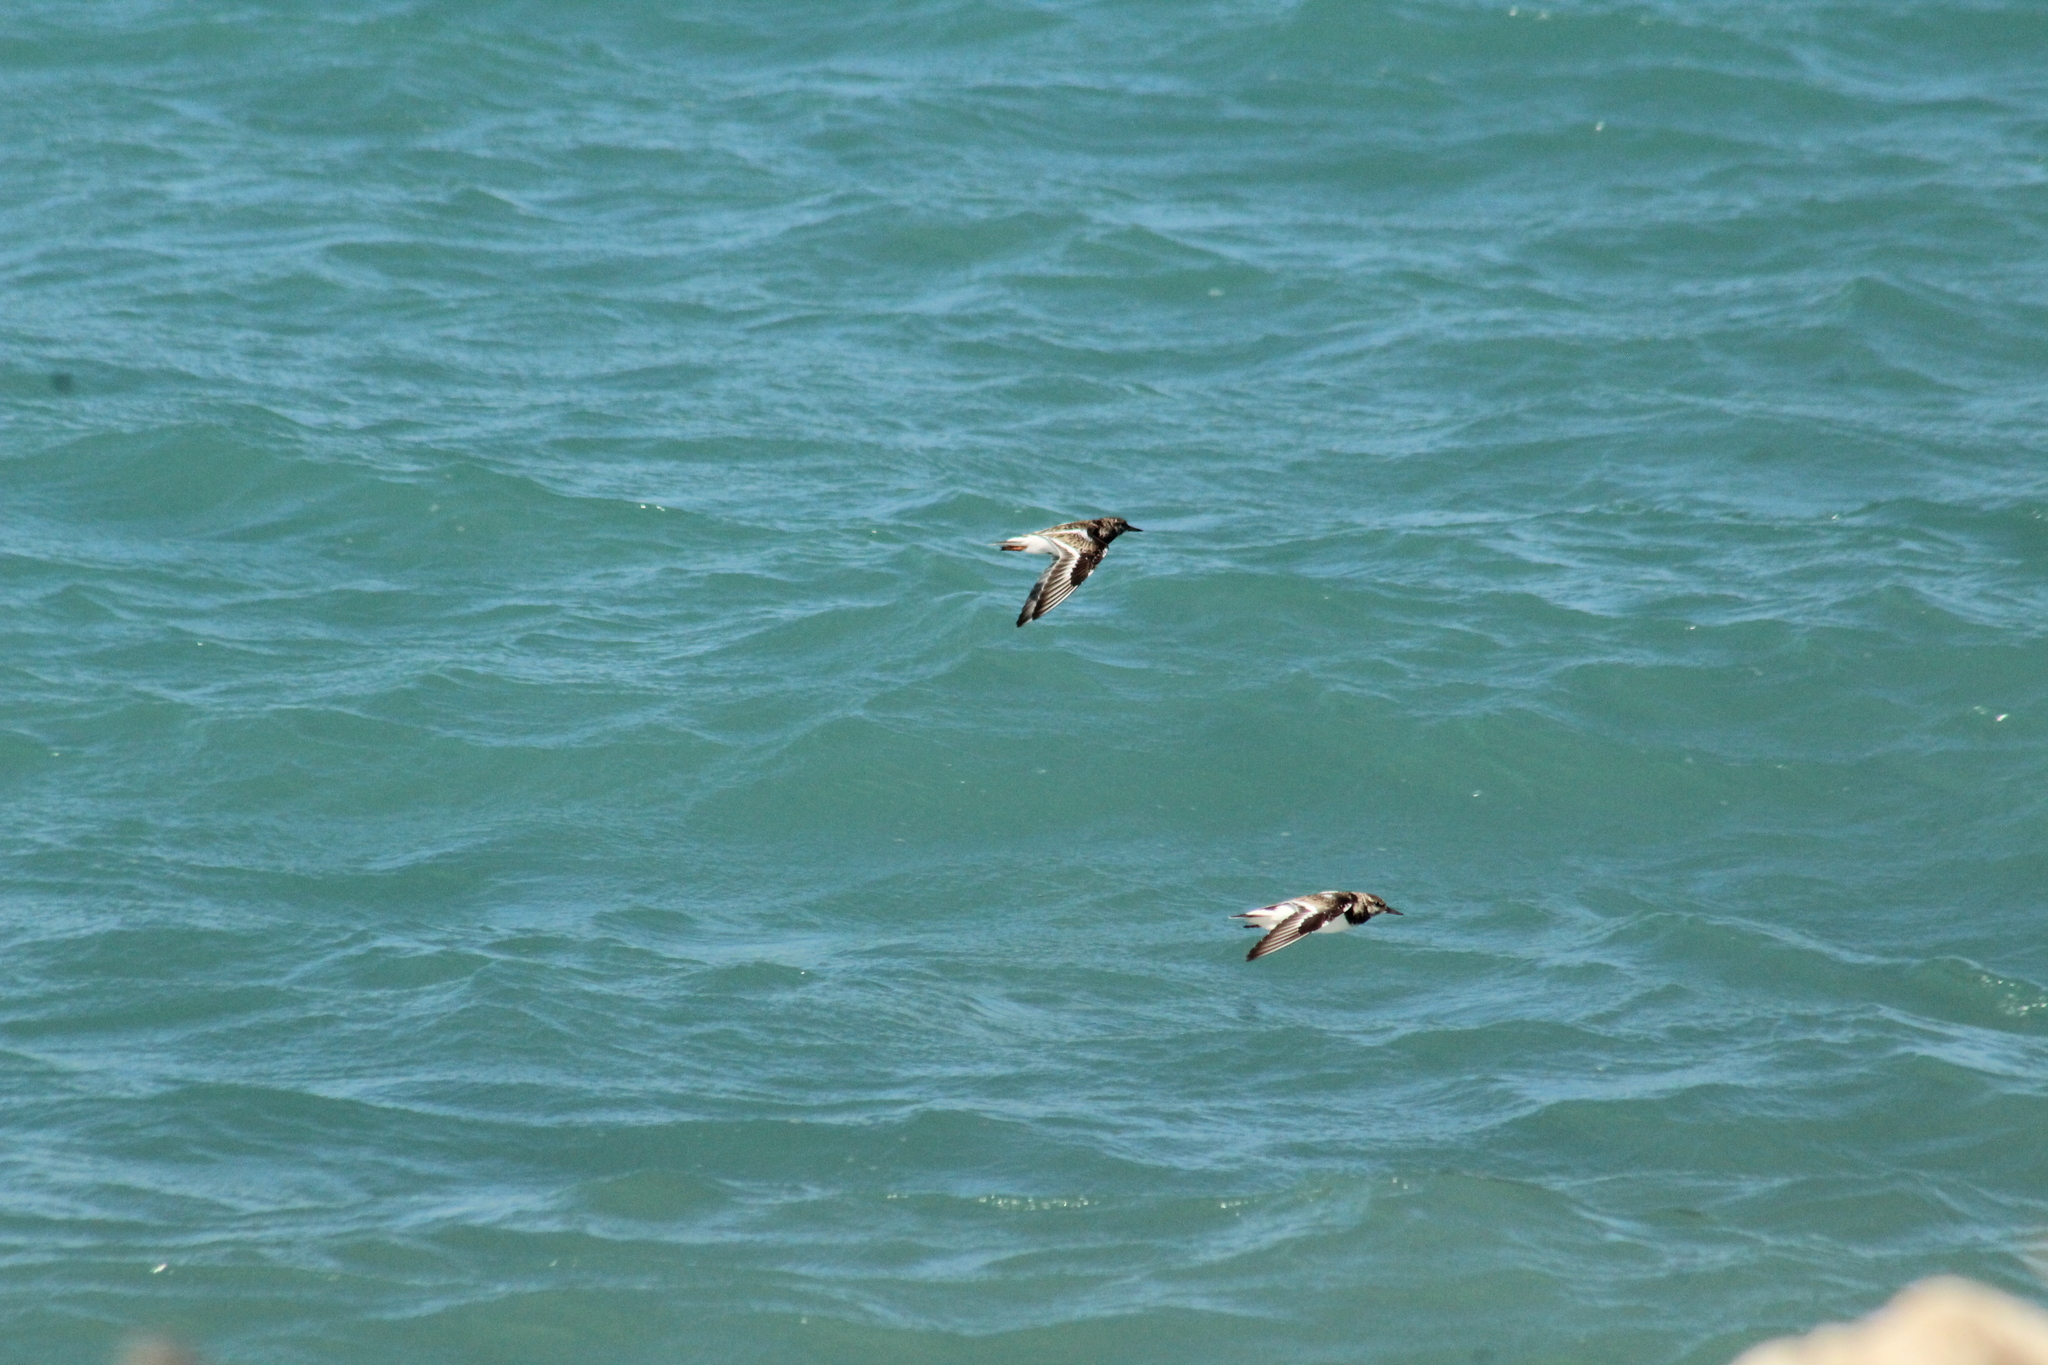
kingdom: Animalia
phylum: Chordata
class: Aves
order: Charadriiformes
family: Scolopacidae
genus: Arenaria
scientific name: Arenaria interpres
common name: Ruddy turnstone
